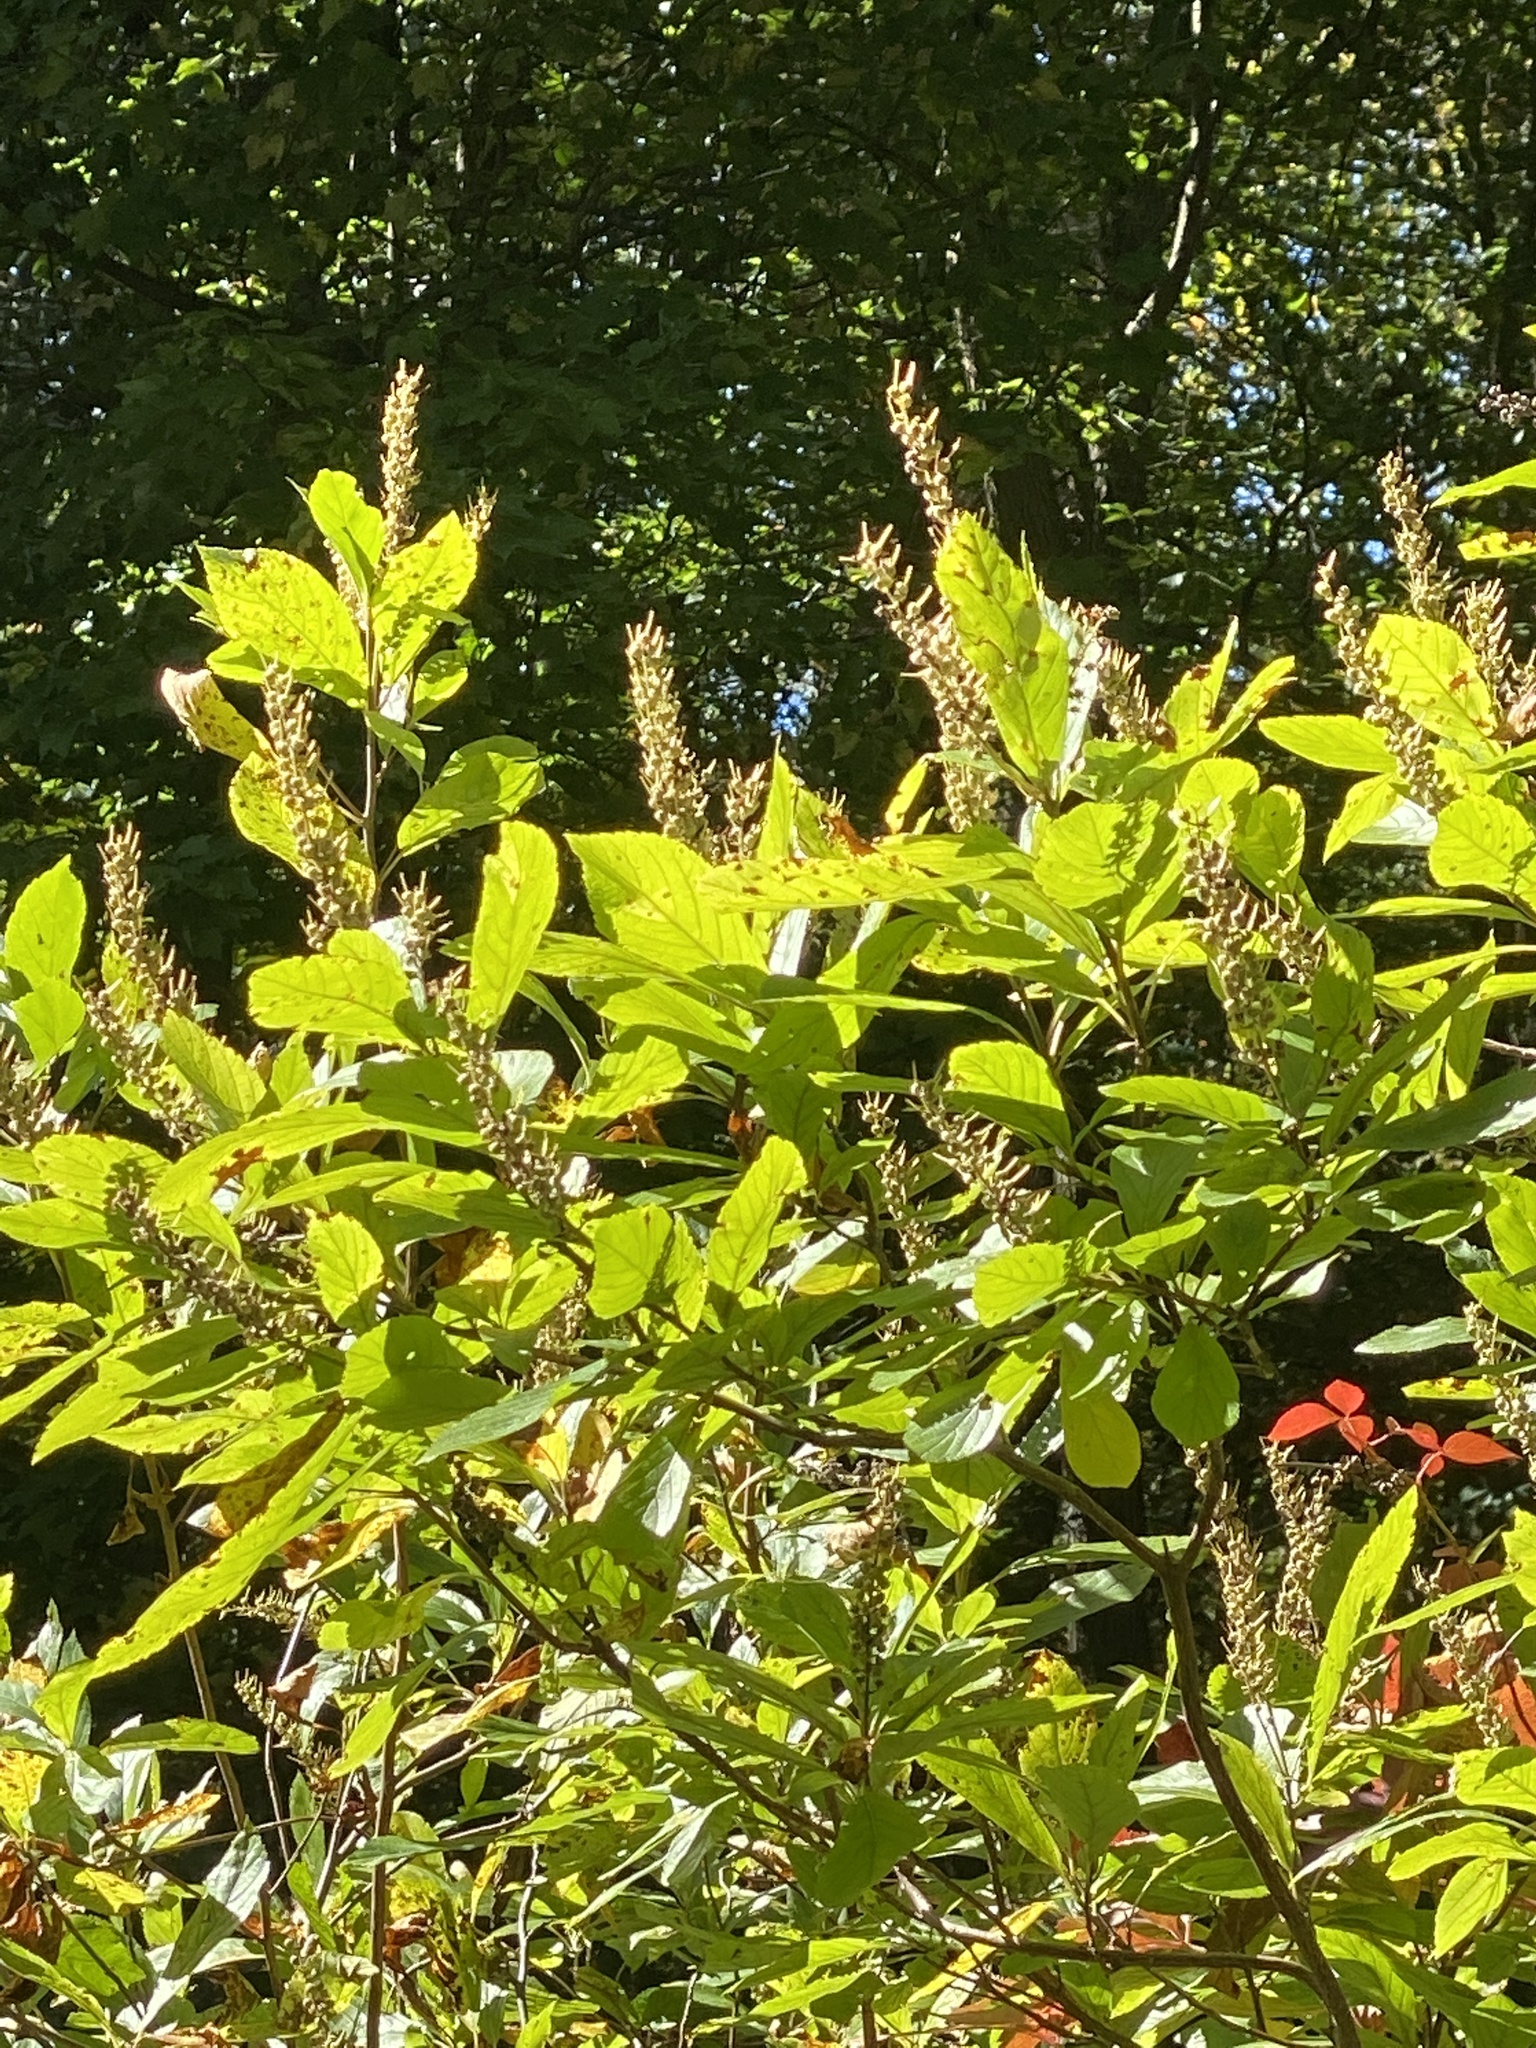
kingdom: Plantae
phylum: Tracheophyta
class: Magnoliopsida
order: Ericales
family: Clethraceae
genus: Clethra
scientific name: Clethra alnifolia
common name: Sweet pepperbush
